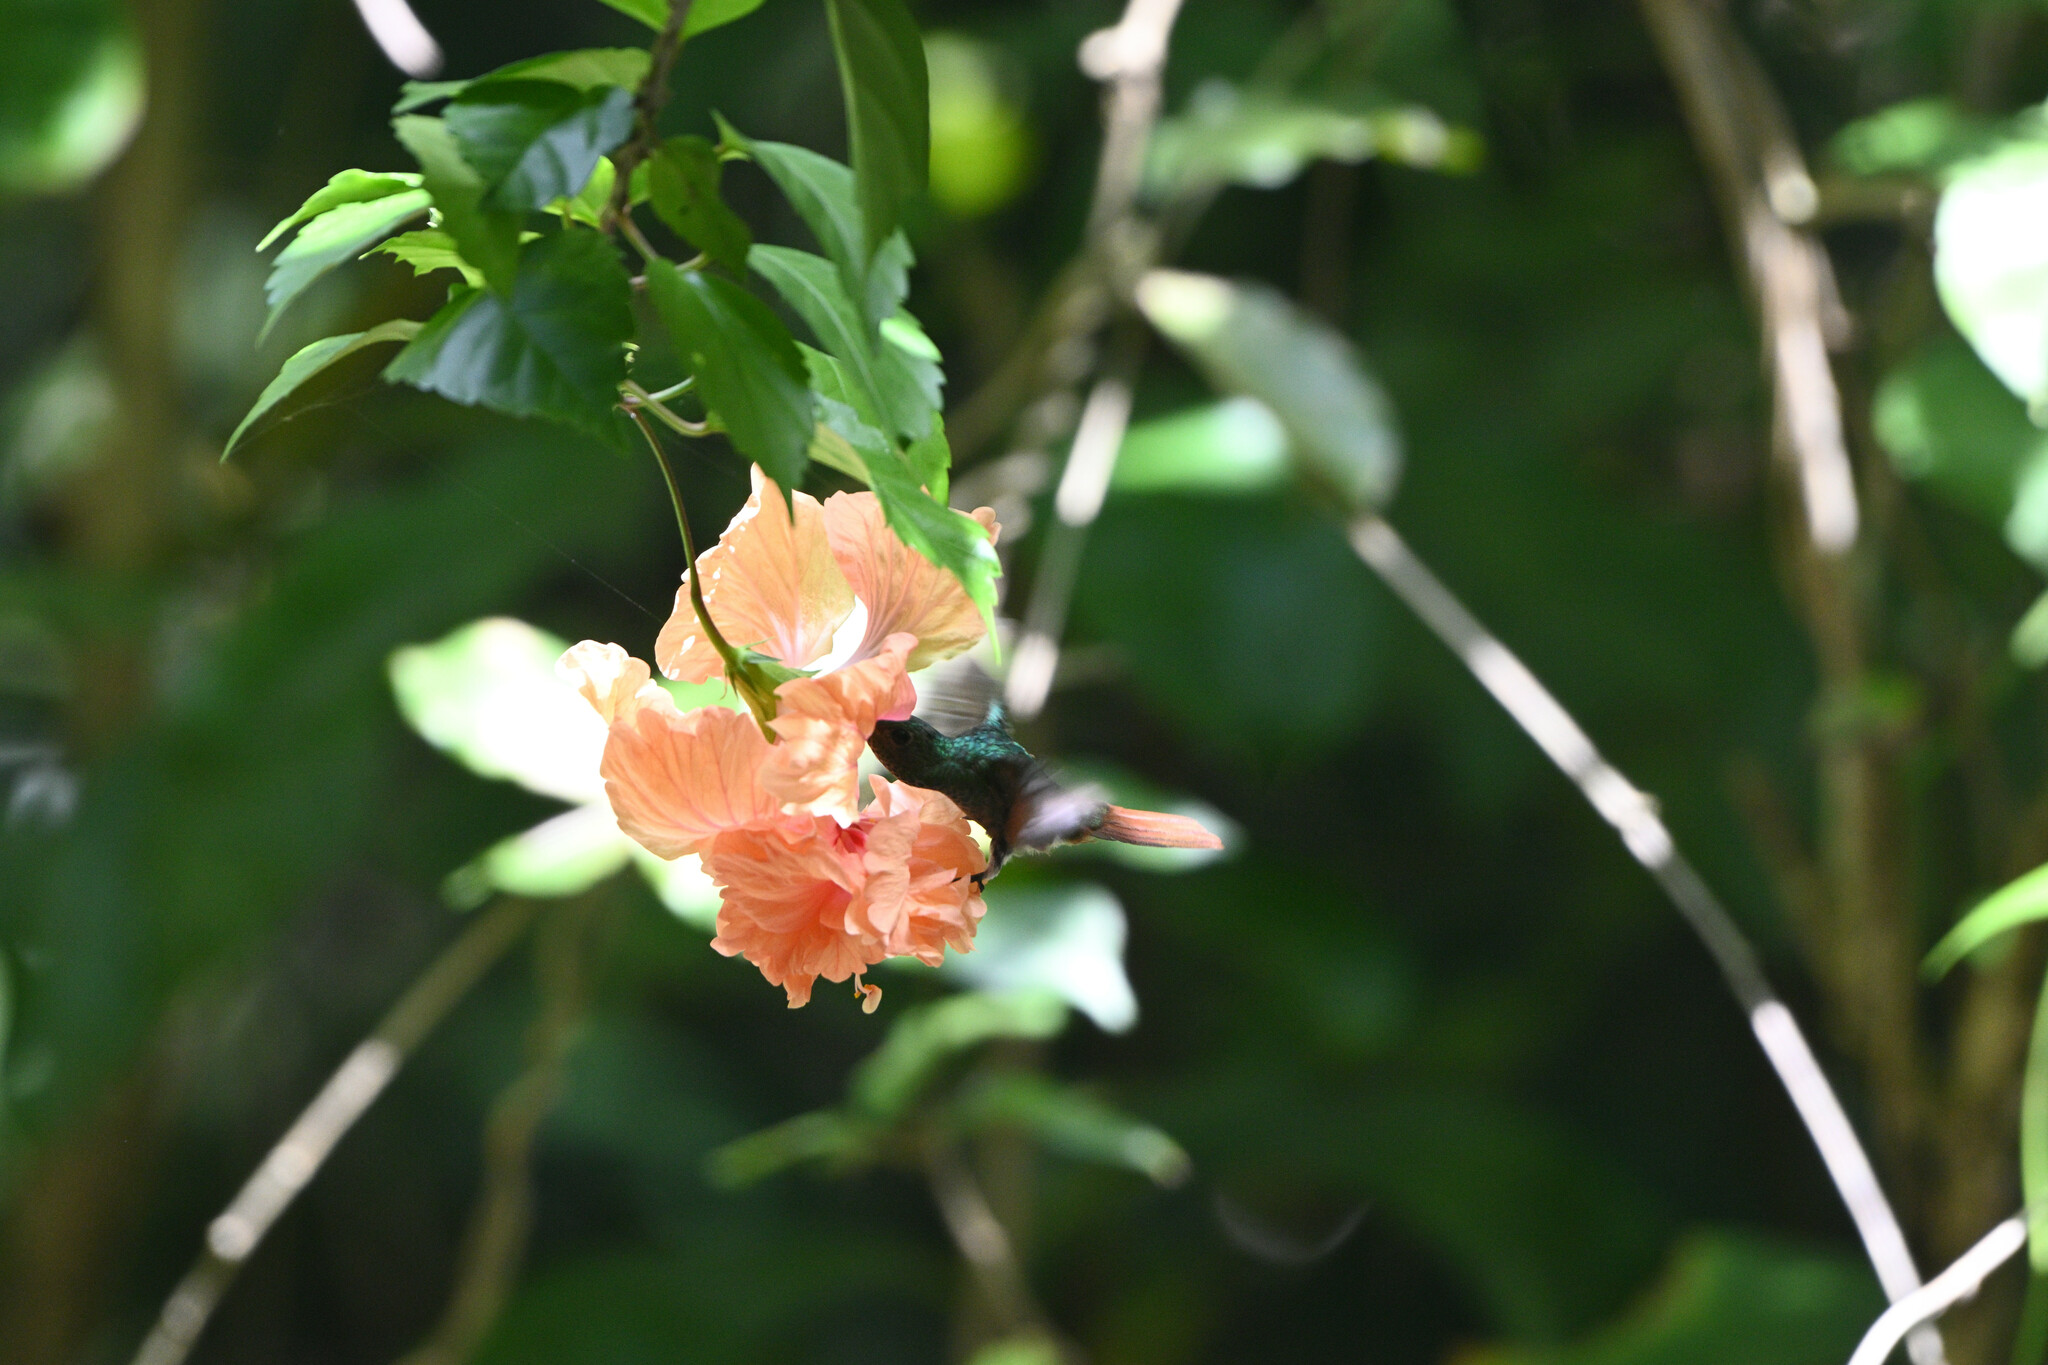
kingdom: Animalia
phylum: Chordata
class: Aves
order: Apodiformes
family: Trochilidae
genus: Amazilia
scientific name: Amazilia tzacatl
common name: Rufous-tailed hummingbird
